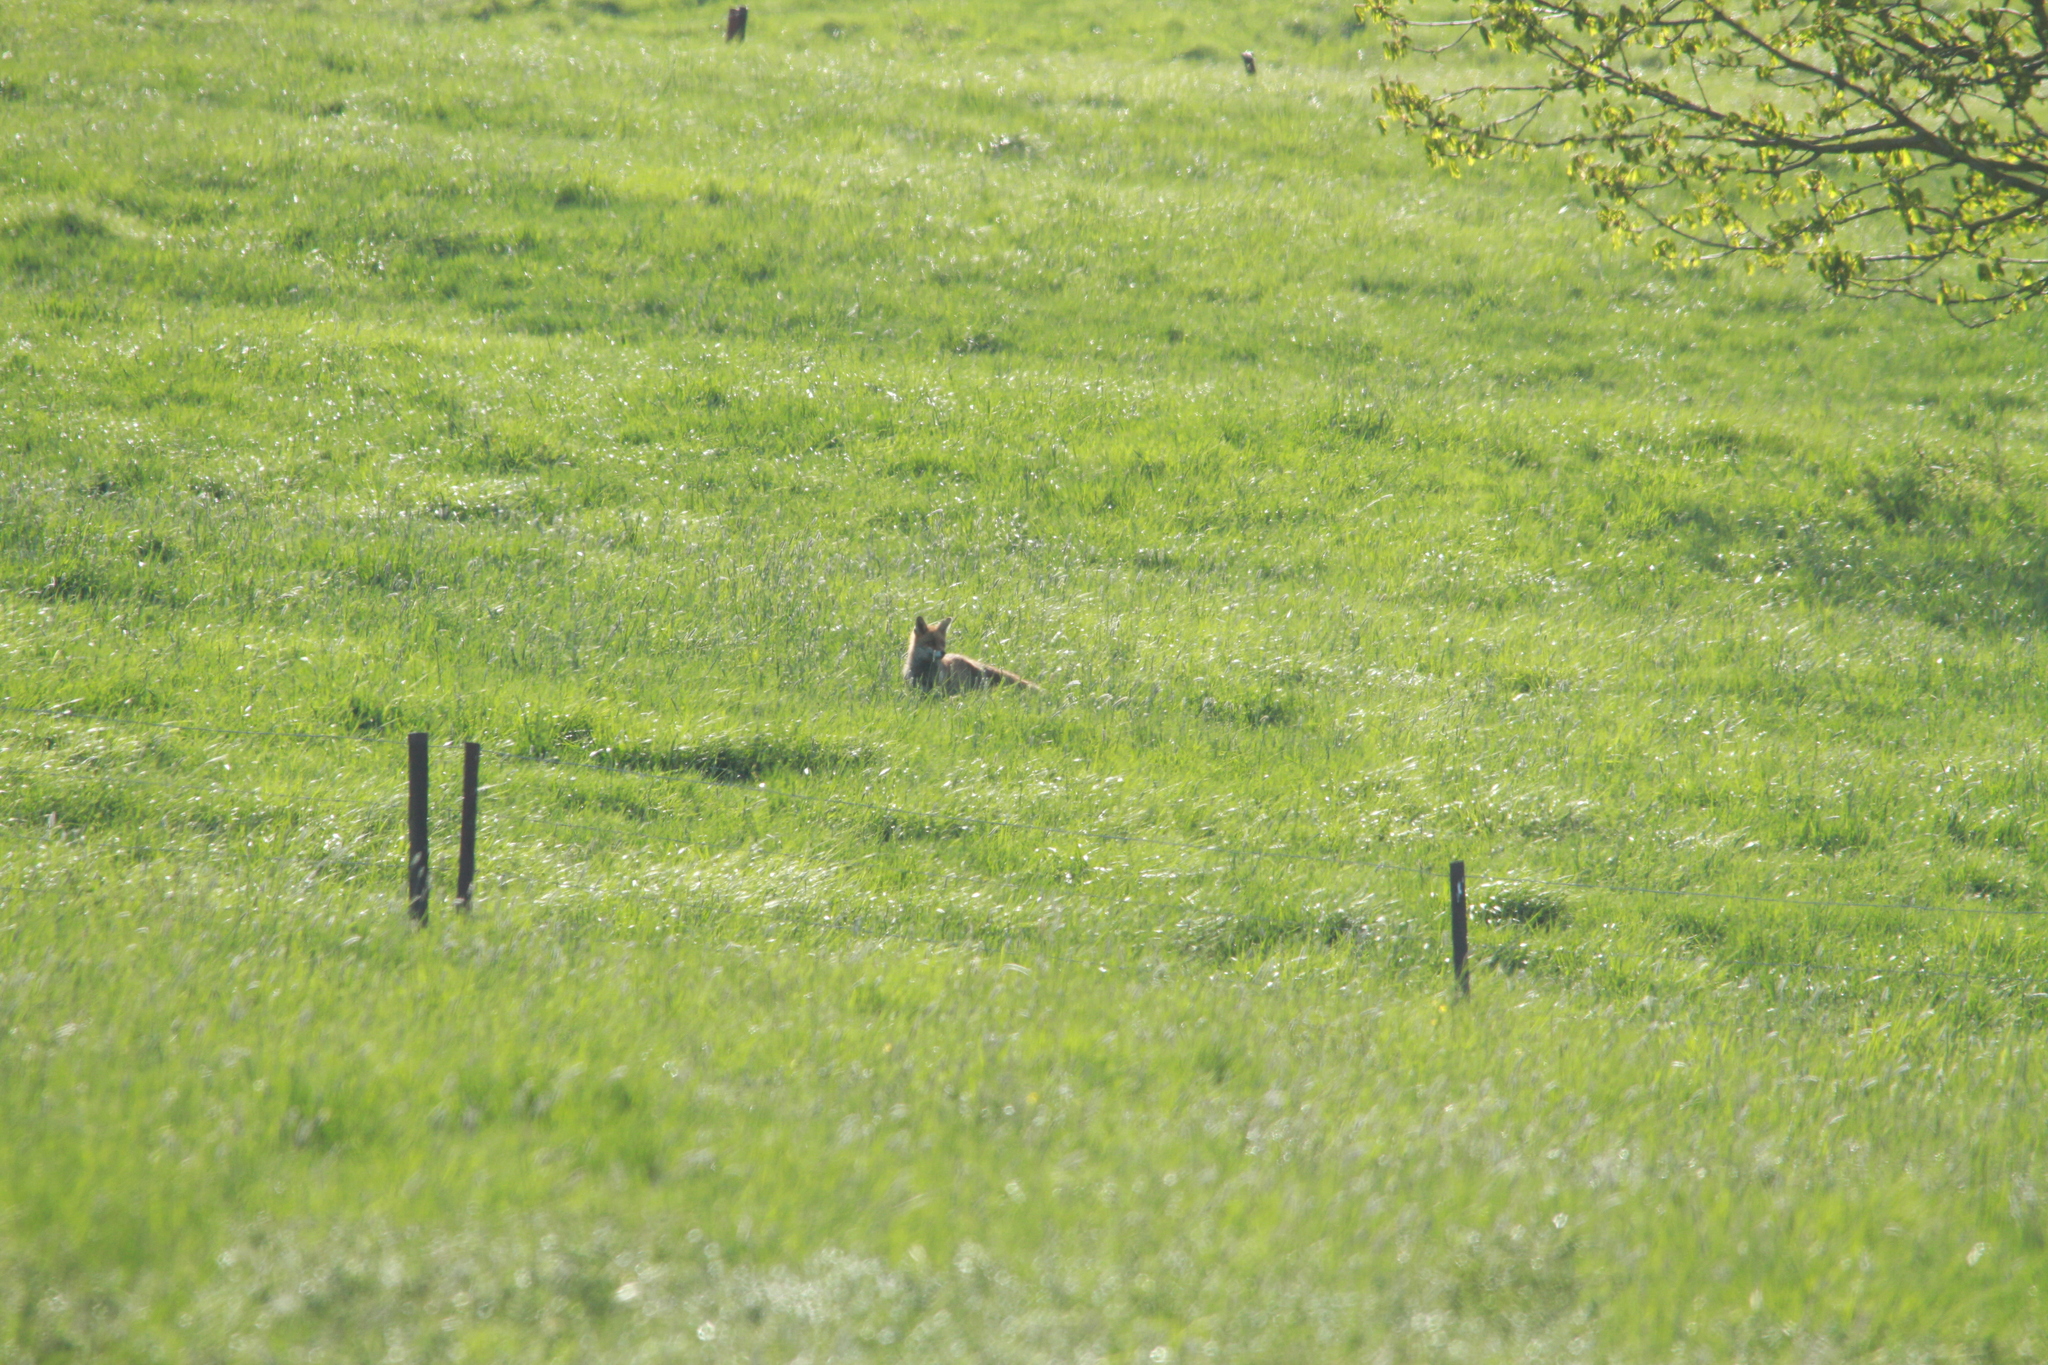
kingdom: Animalia
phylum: Chordata
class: Mammalia
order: Carnivora
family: Canidae
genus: Vulpes
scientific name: Vulpes vulpes
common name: Red fox
